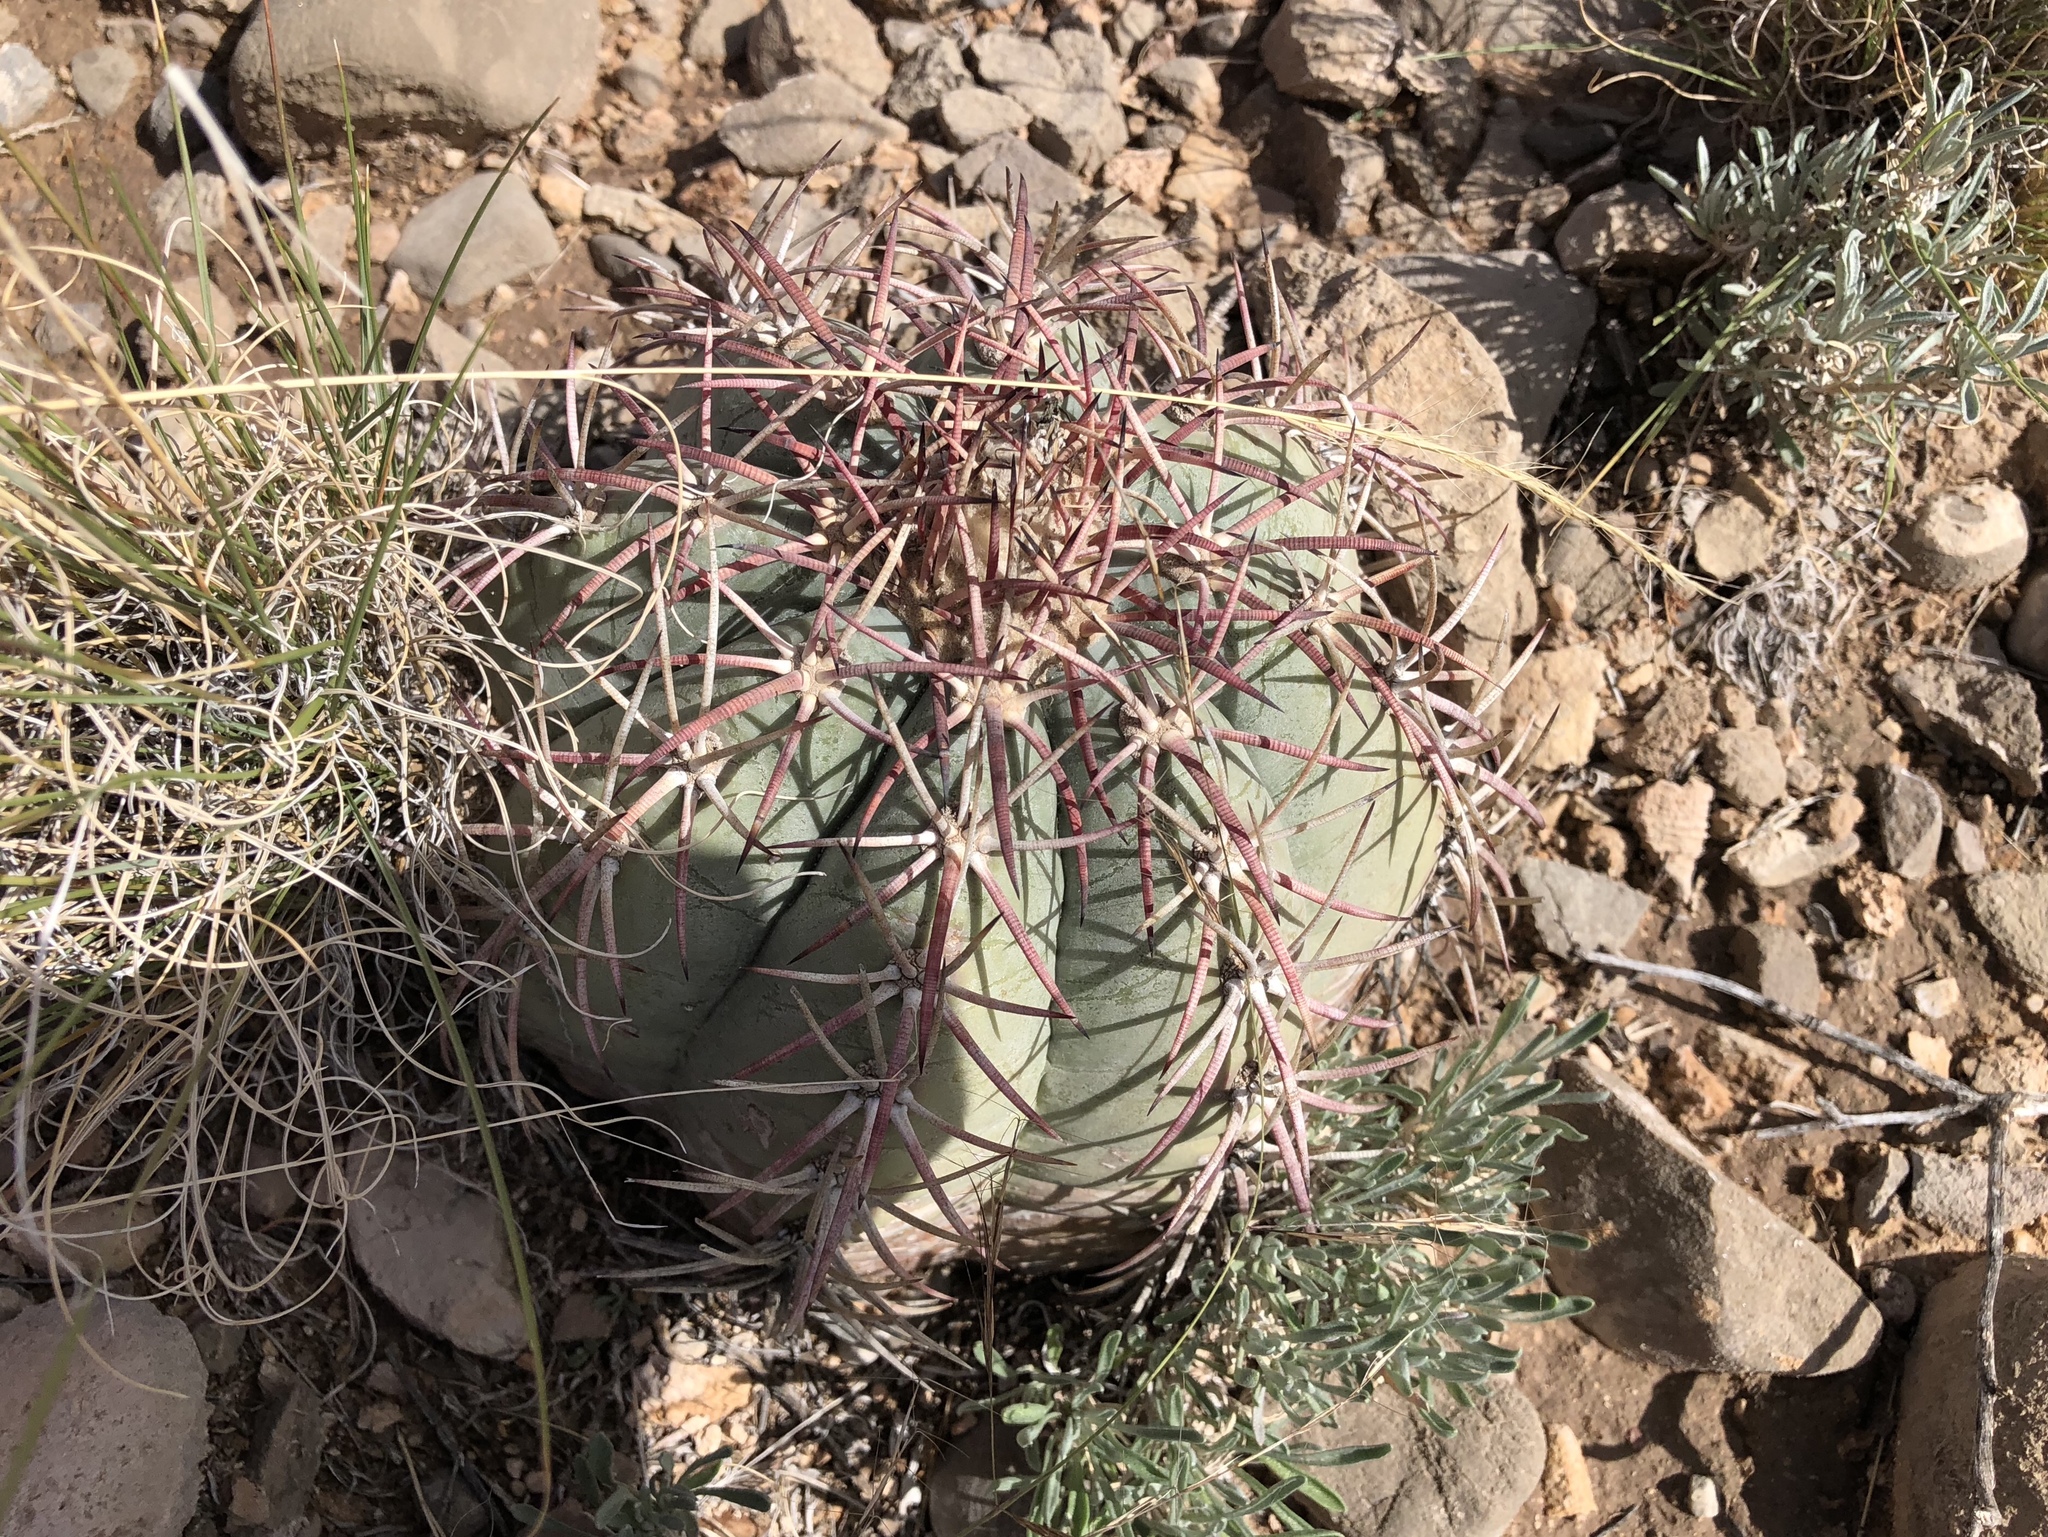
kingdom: Plantae
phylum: Tracheophyta
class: Magnoliopsida
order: Caryophyllales
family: Cactaceae
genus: Echinocactus
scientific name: Echinocactus horizonthalonius
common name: Devilshead
